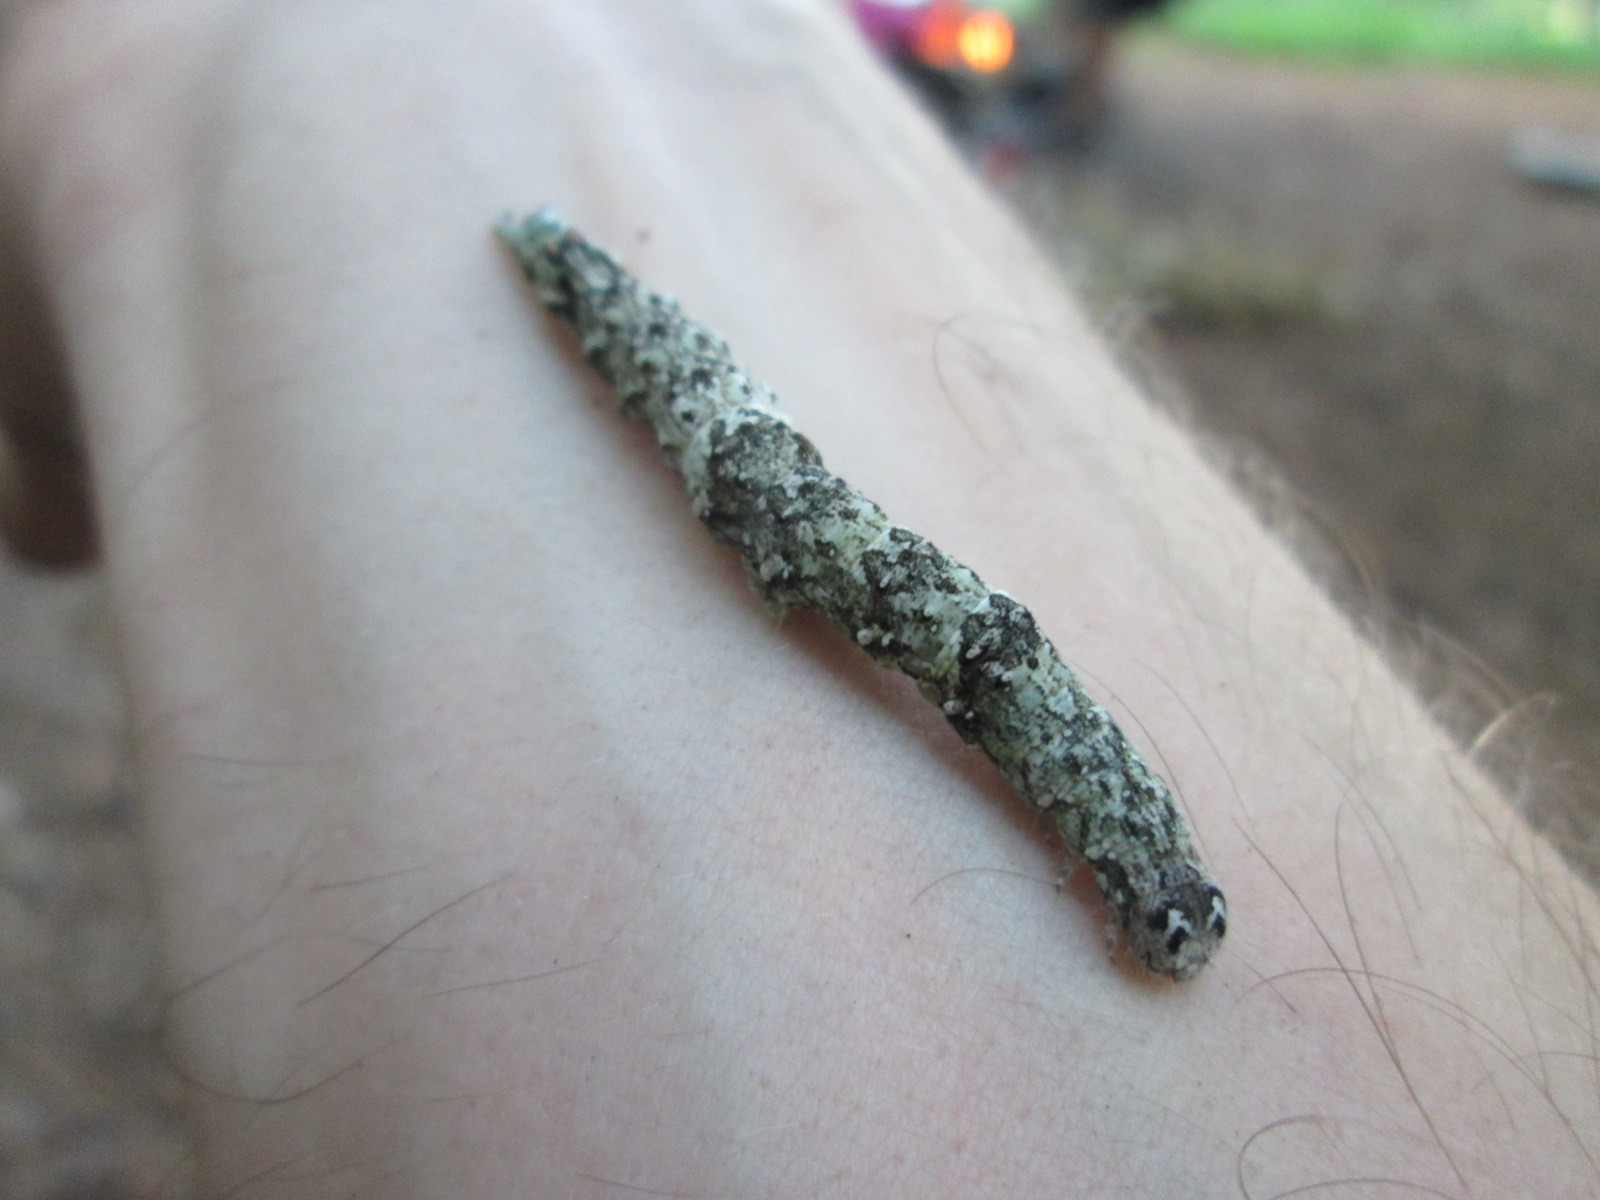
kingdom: Animalia
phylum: Arthropoda
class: Insecta
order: Lepidoptera
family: Erebidae
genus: Catocala
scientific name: Catocala ilia
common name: Ilia underwing
